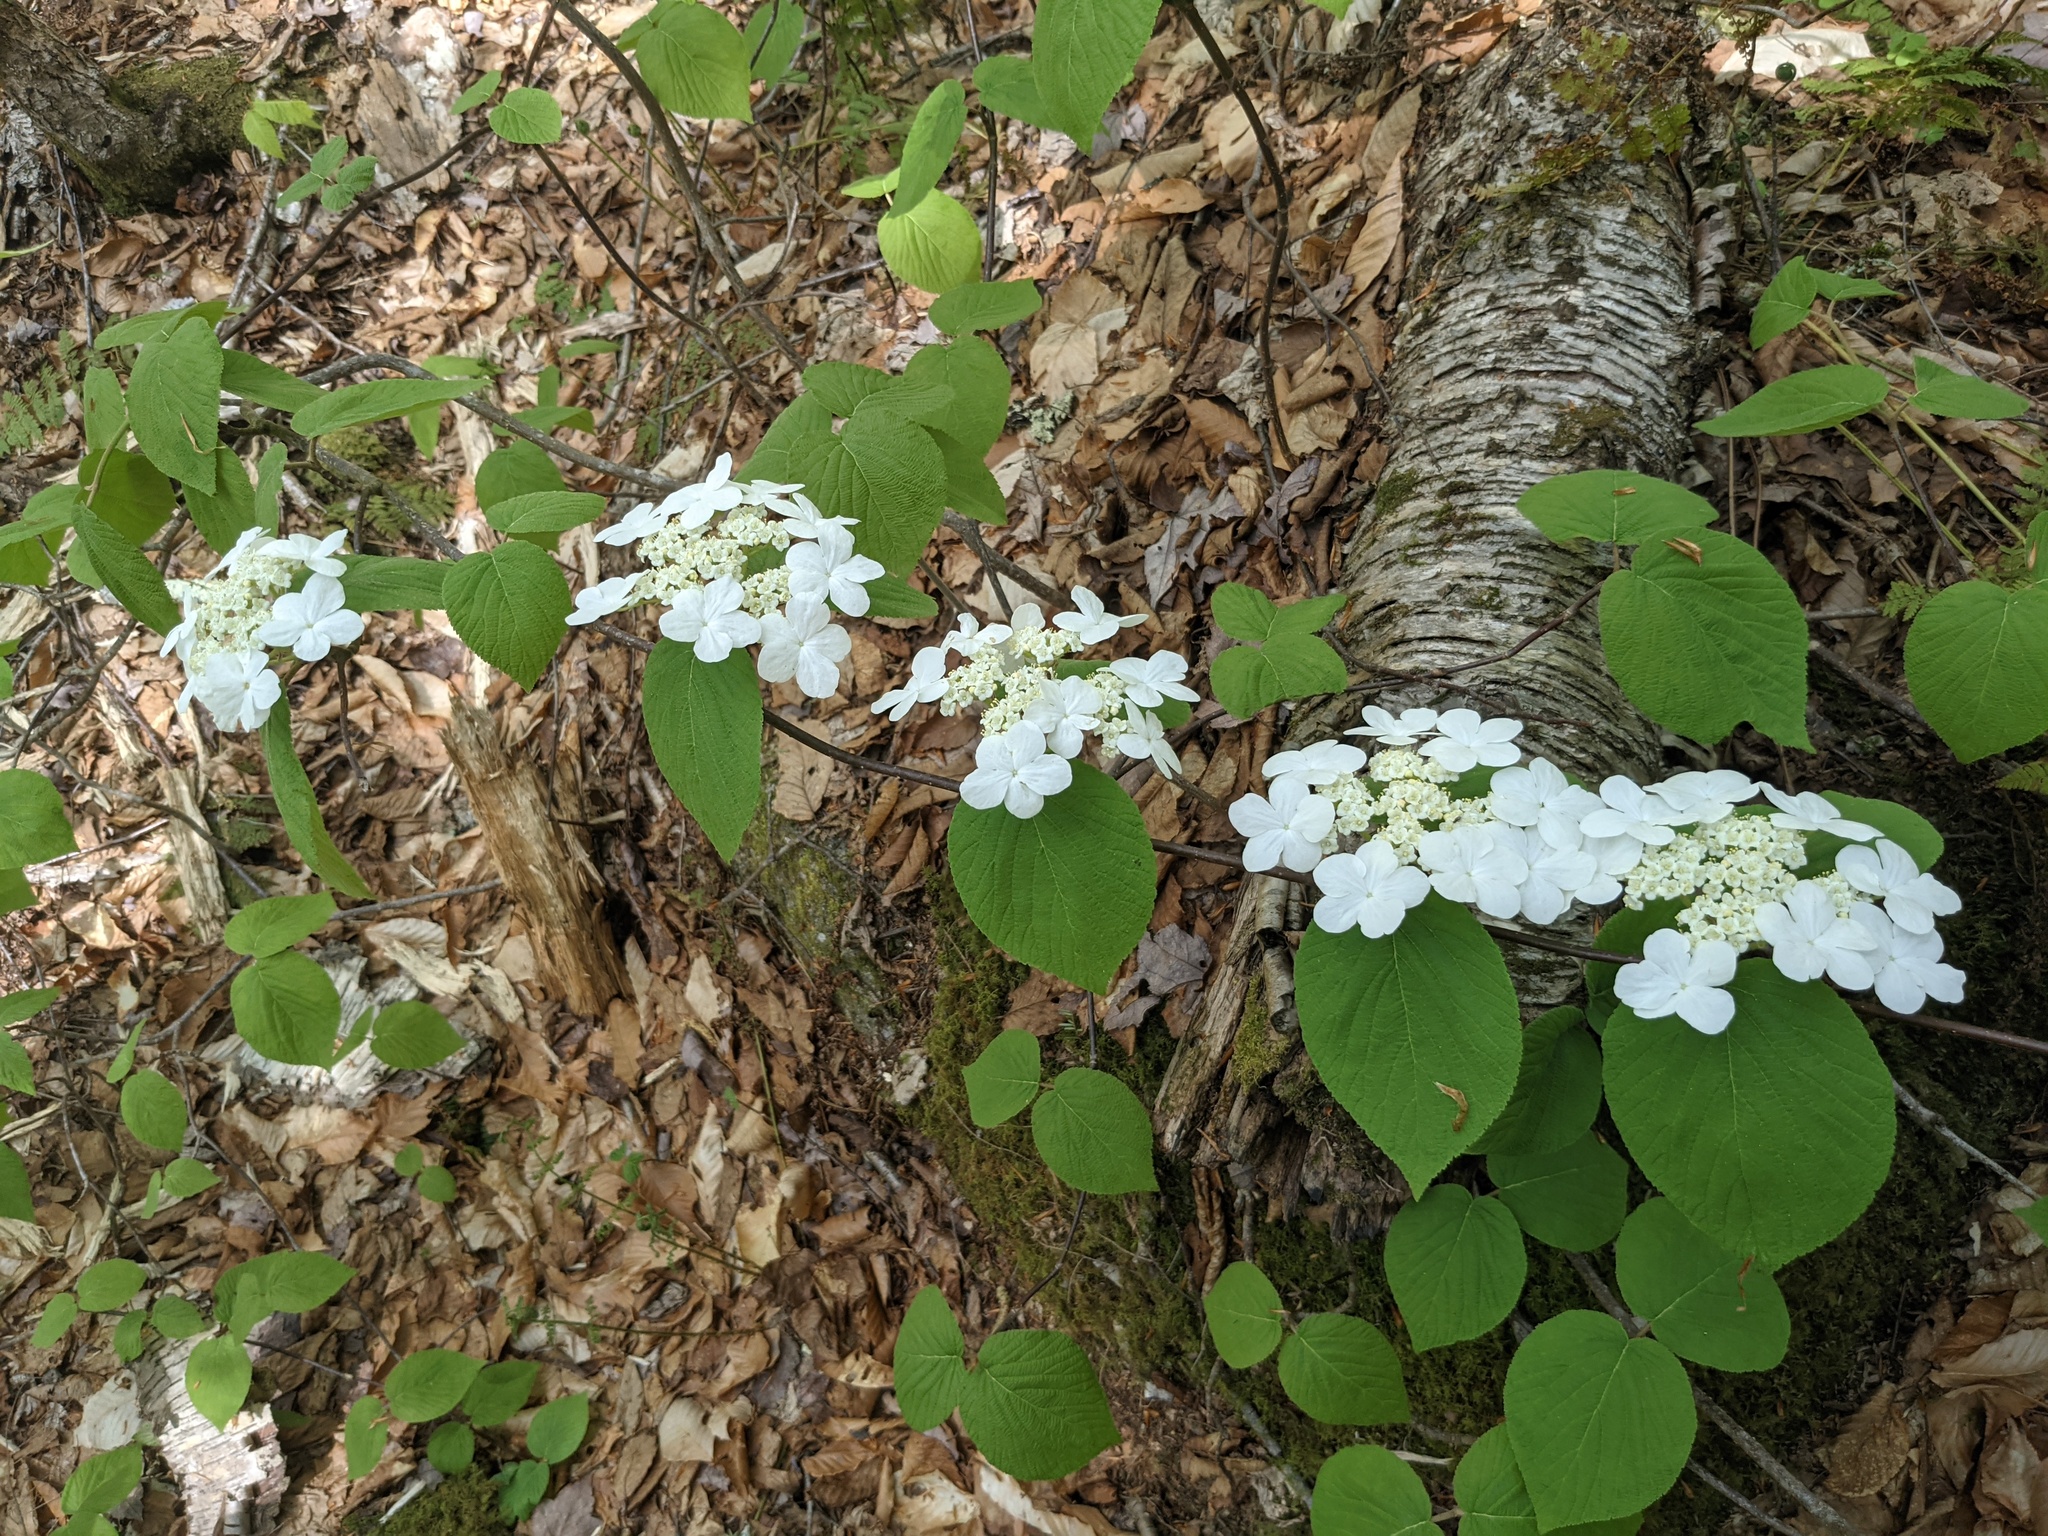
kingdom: Plantae
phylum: Tracheophyta
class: Magnoliopsida
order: Dipsacales
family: Viburnaceae
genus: Viburnum
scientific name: Viburnum lantanoides
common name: Hobblebush
